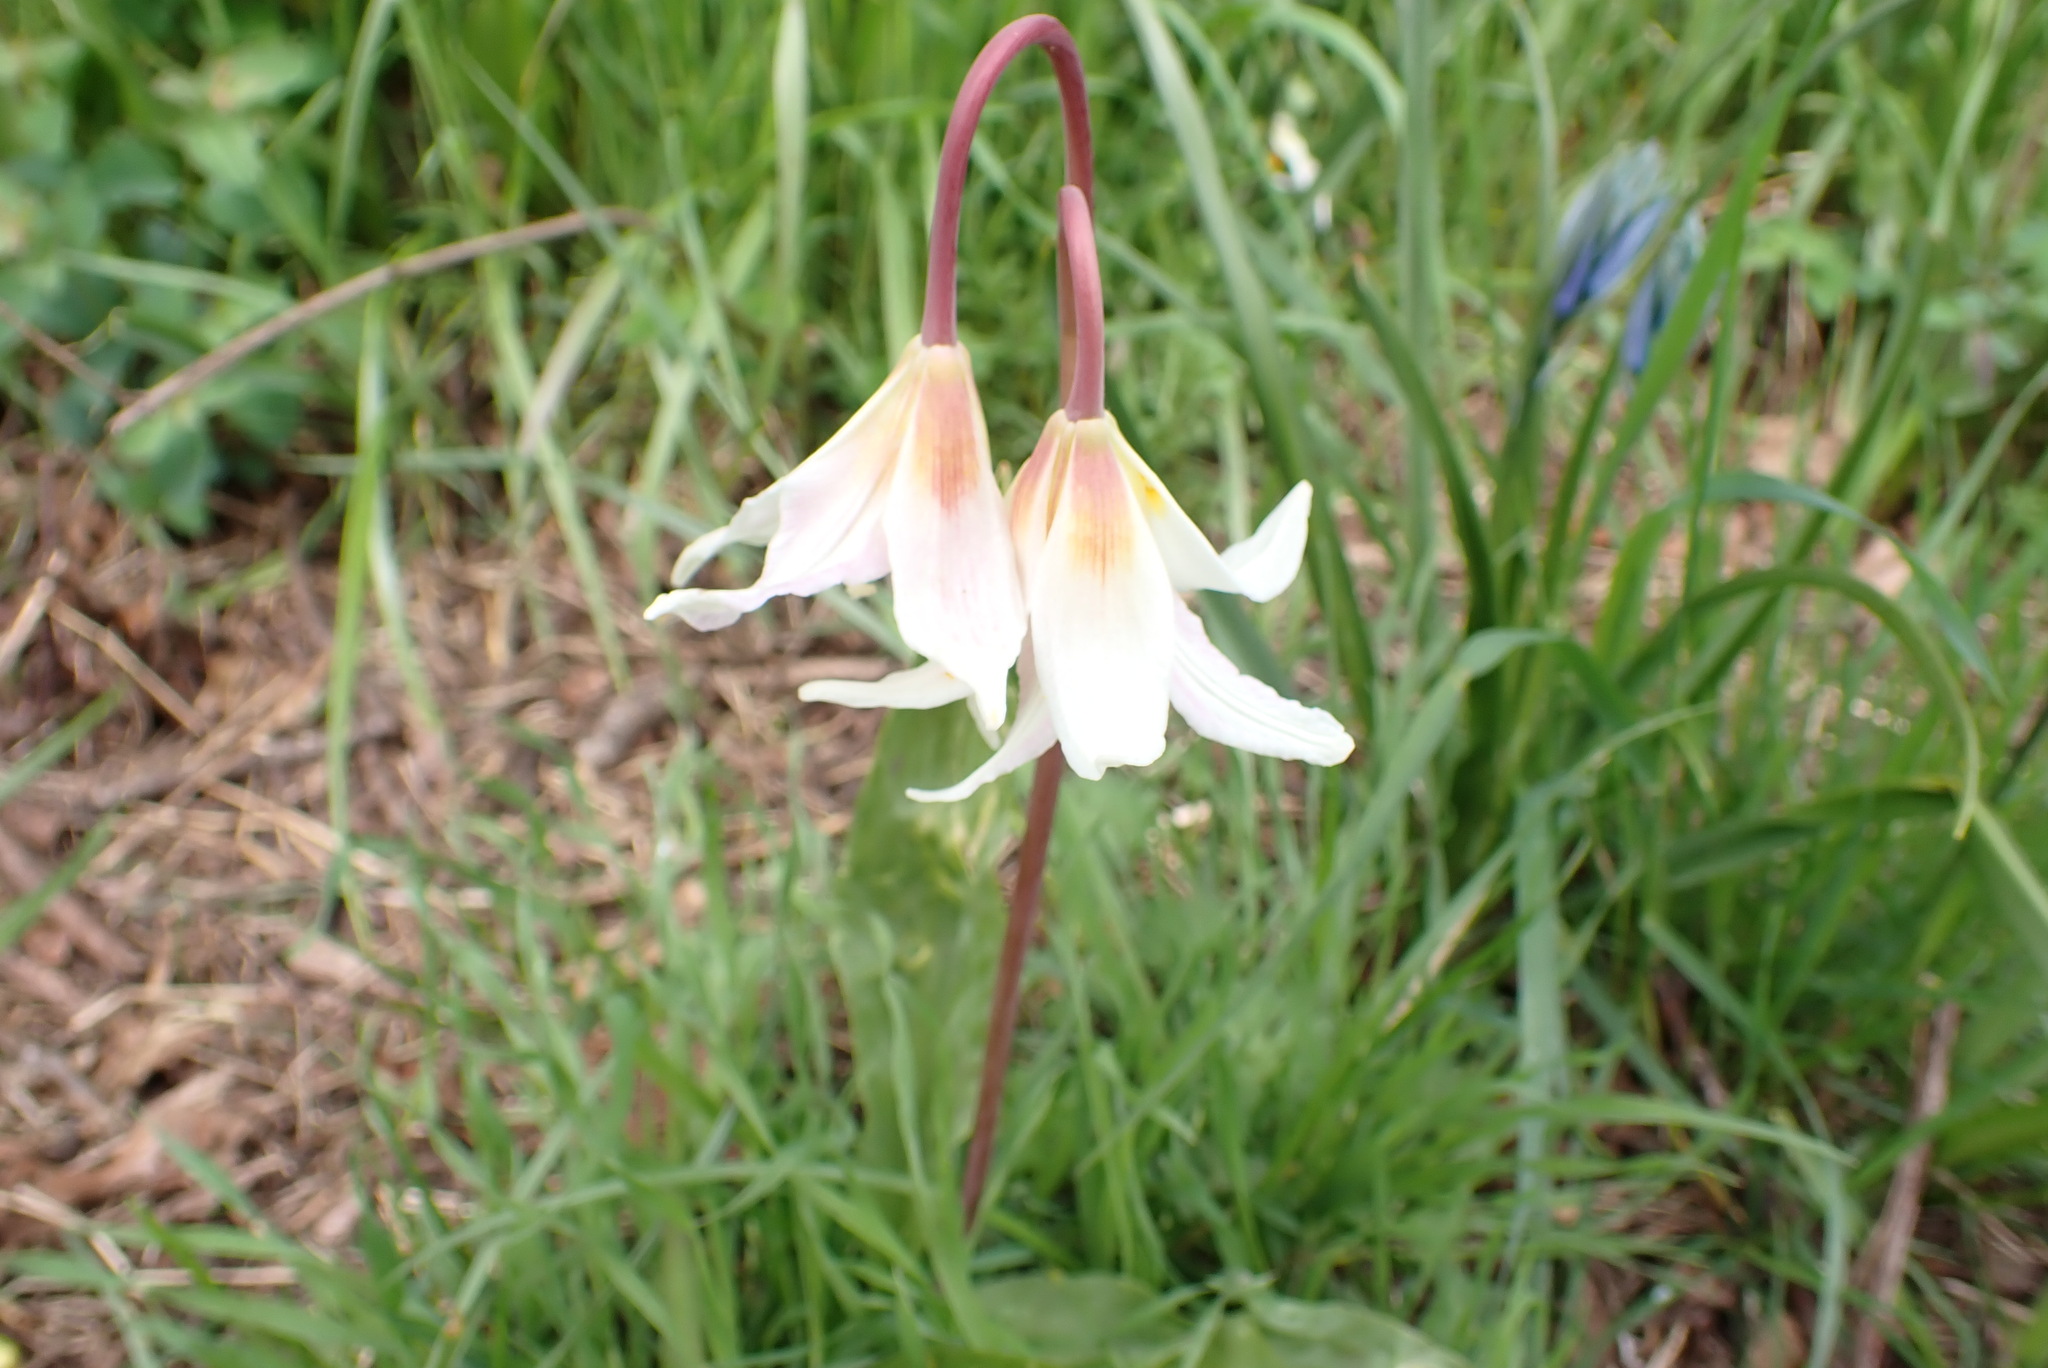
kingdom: Plantae
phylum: Tracheophyta
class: Liliopsida
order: Liliales
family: Liliaceae
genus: Erythronium
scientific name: Erythronium oregonum
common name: Giant adder's-tongue
